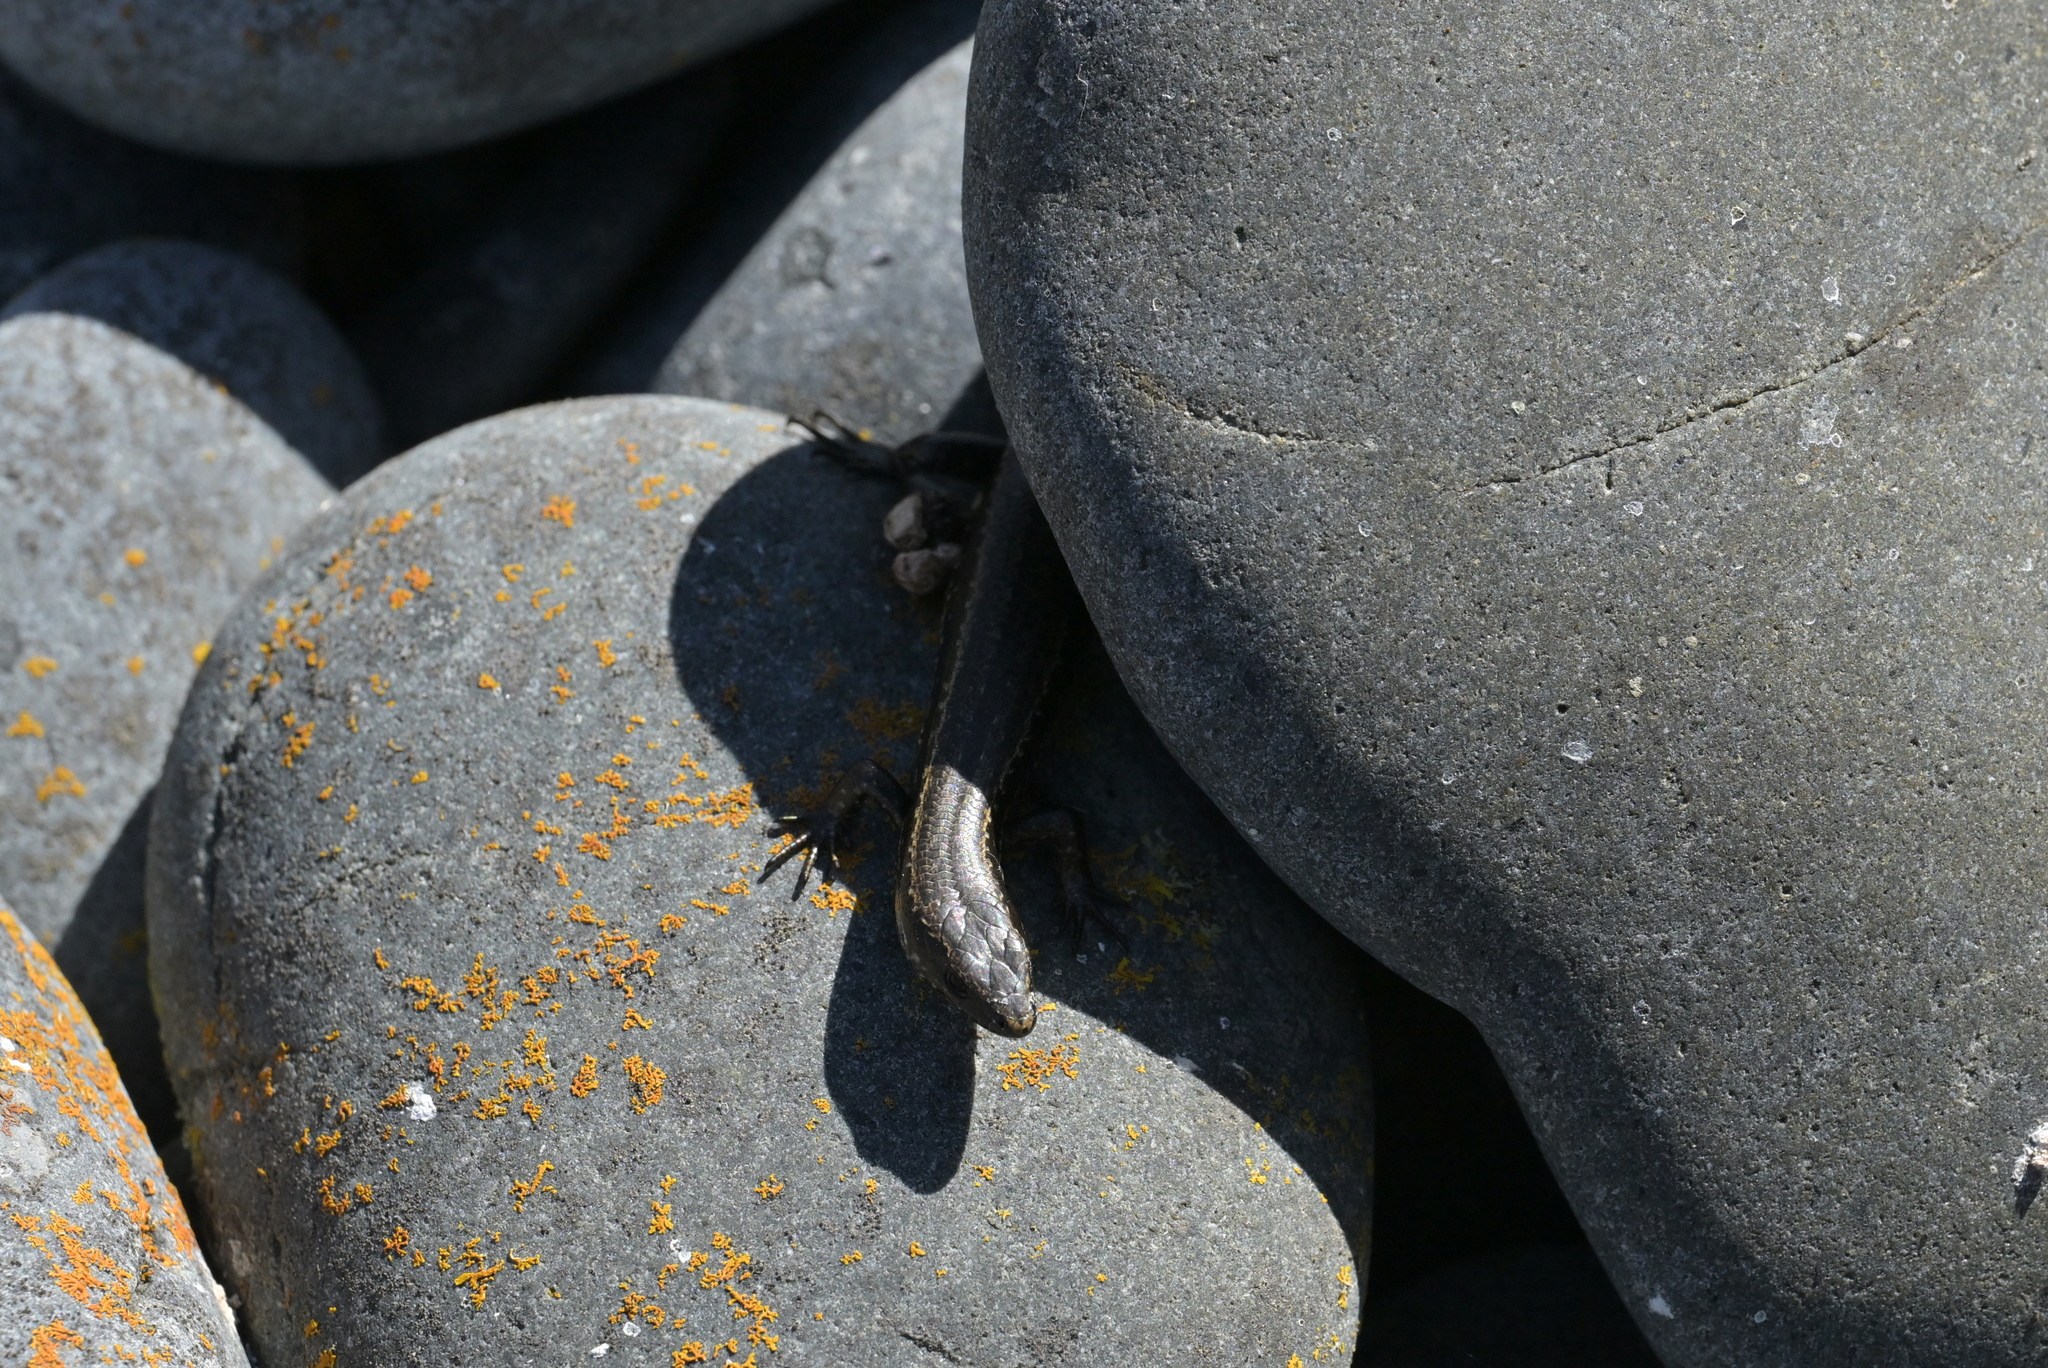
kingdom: Animalia
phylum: Chordata
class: Squamata
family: Scincidae
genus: Oligosoma
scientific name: Oligosoma polychroma
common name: Common new zealand skink
